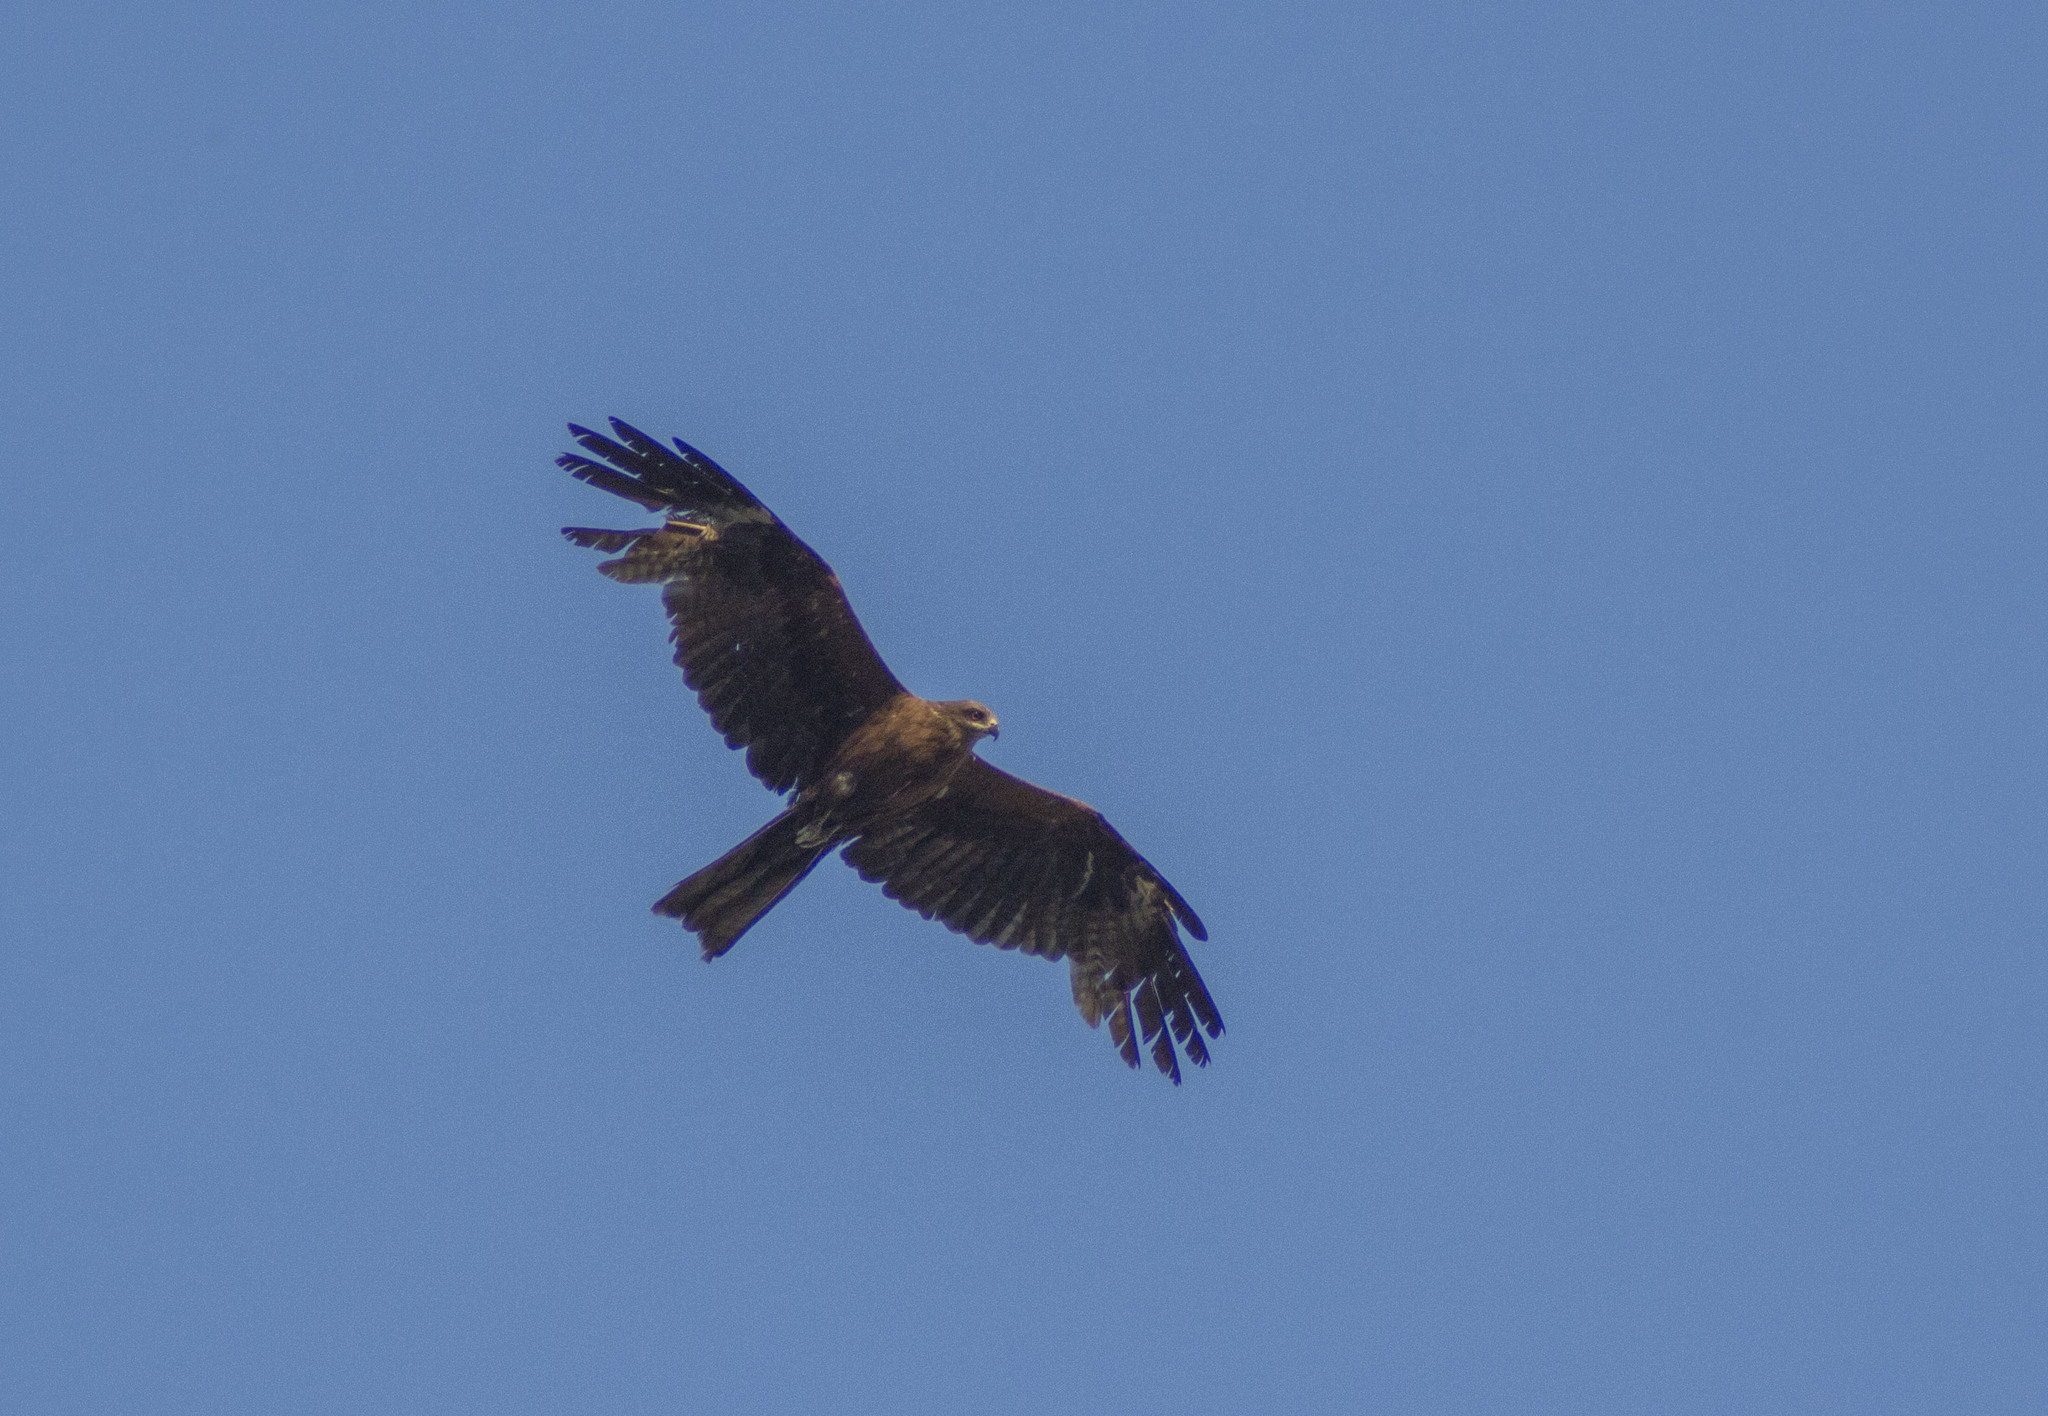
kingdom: Animalia
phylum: Chordata
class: Aves
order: Accipitriformes
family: Accipitridae
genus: Milvus
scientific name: Milvus migrans
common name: Black kite
